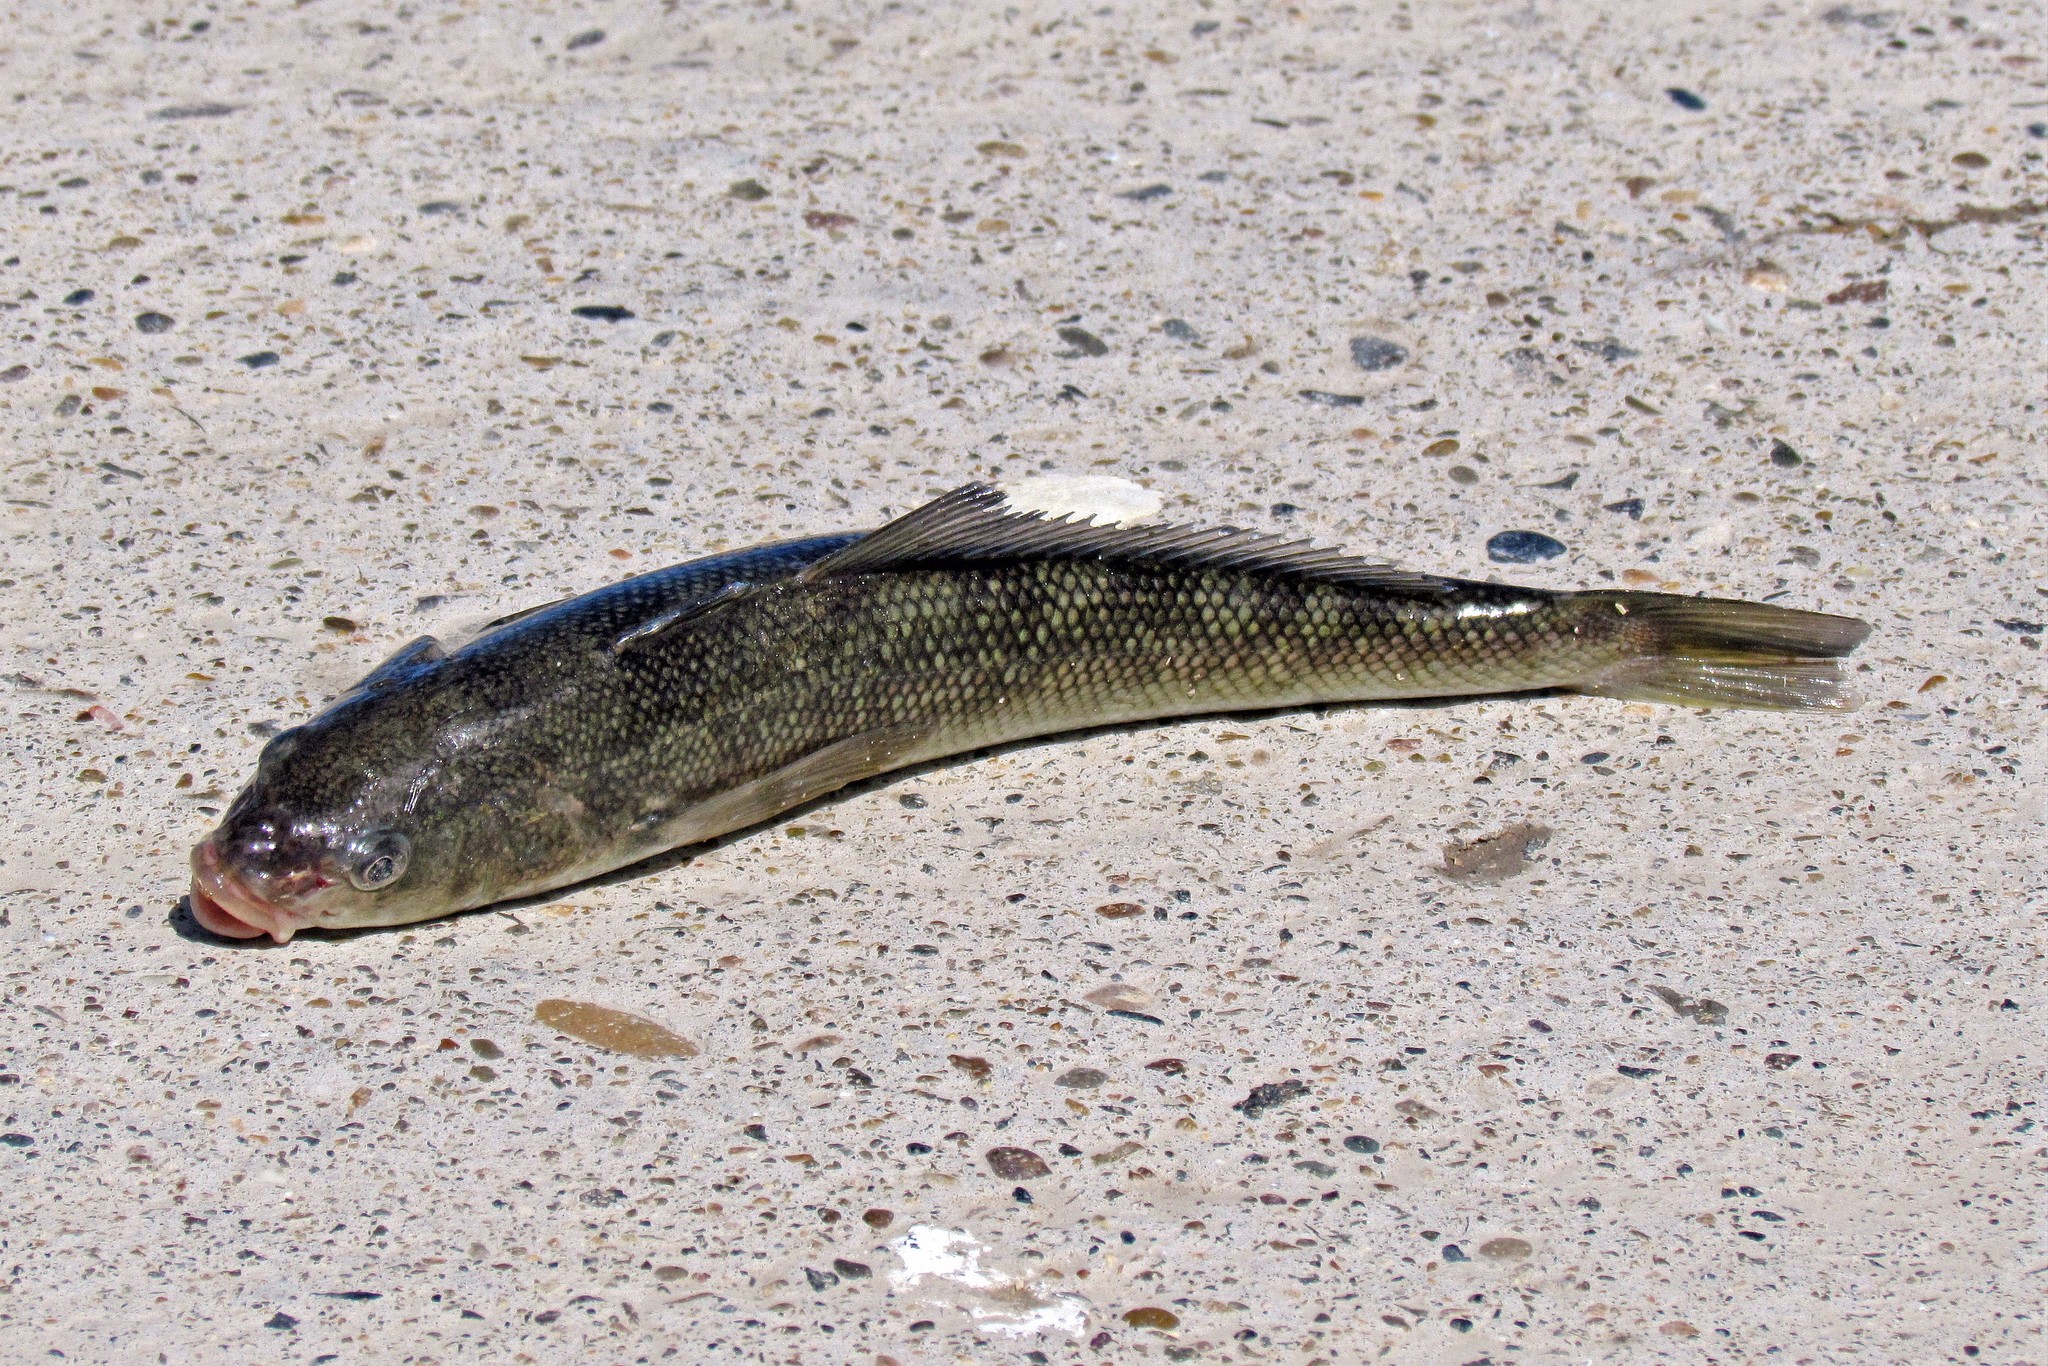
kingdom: Animalia
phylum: Chordata
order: Perciformes
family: Eleginopsidae
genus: Eleginops
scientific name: Eleginops maclovinus
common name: Patagonian blennie
